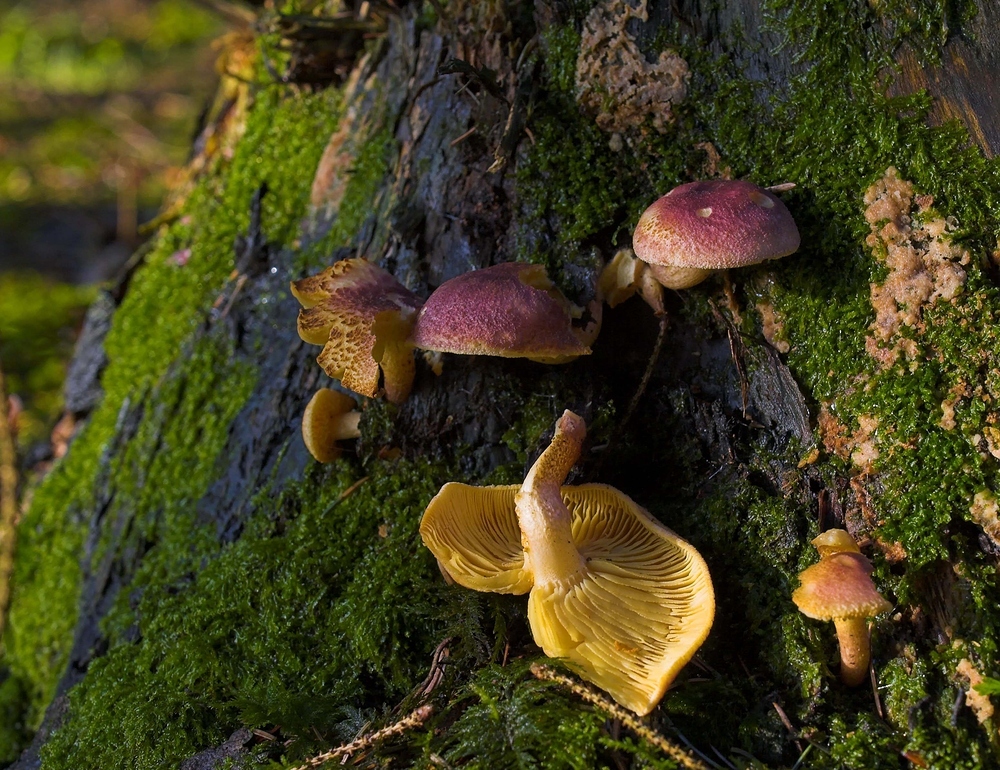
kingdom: Fungi
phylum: Basidiomycota
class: Agaricomycetes
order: Agaricales
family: Tricholomataceae
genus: Tricholomopsis
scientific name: Tricholomopsis rutilans
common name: Plums and custard
